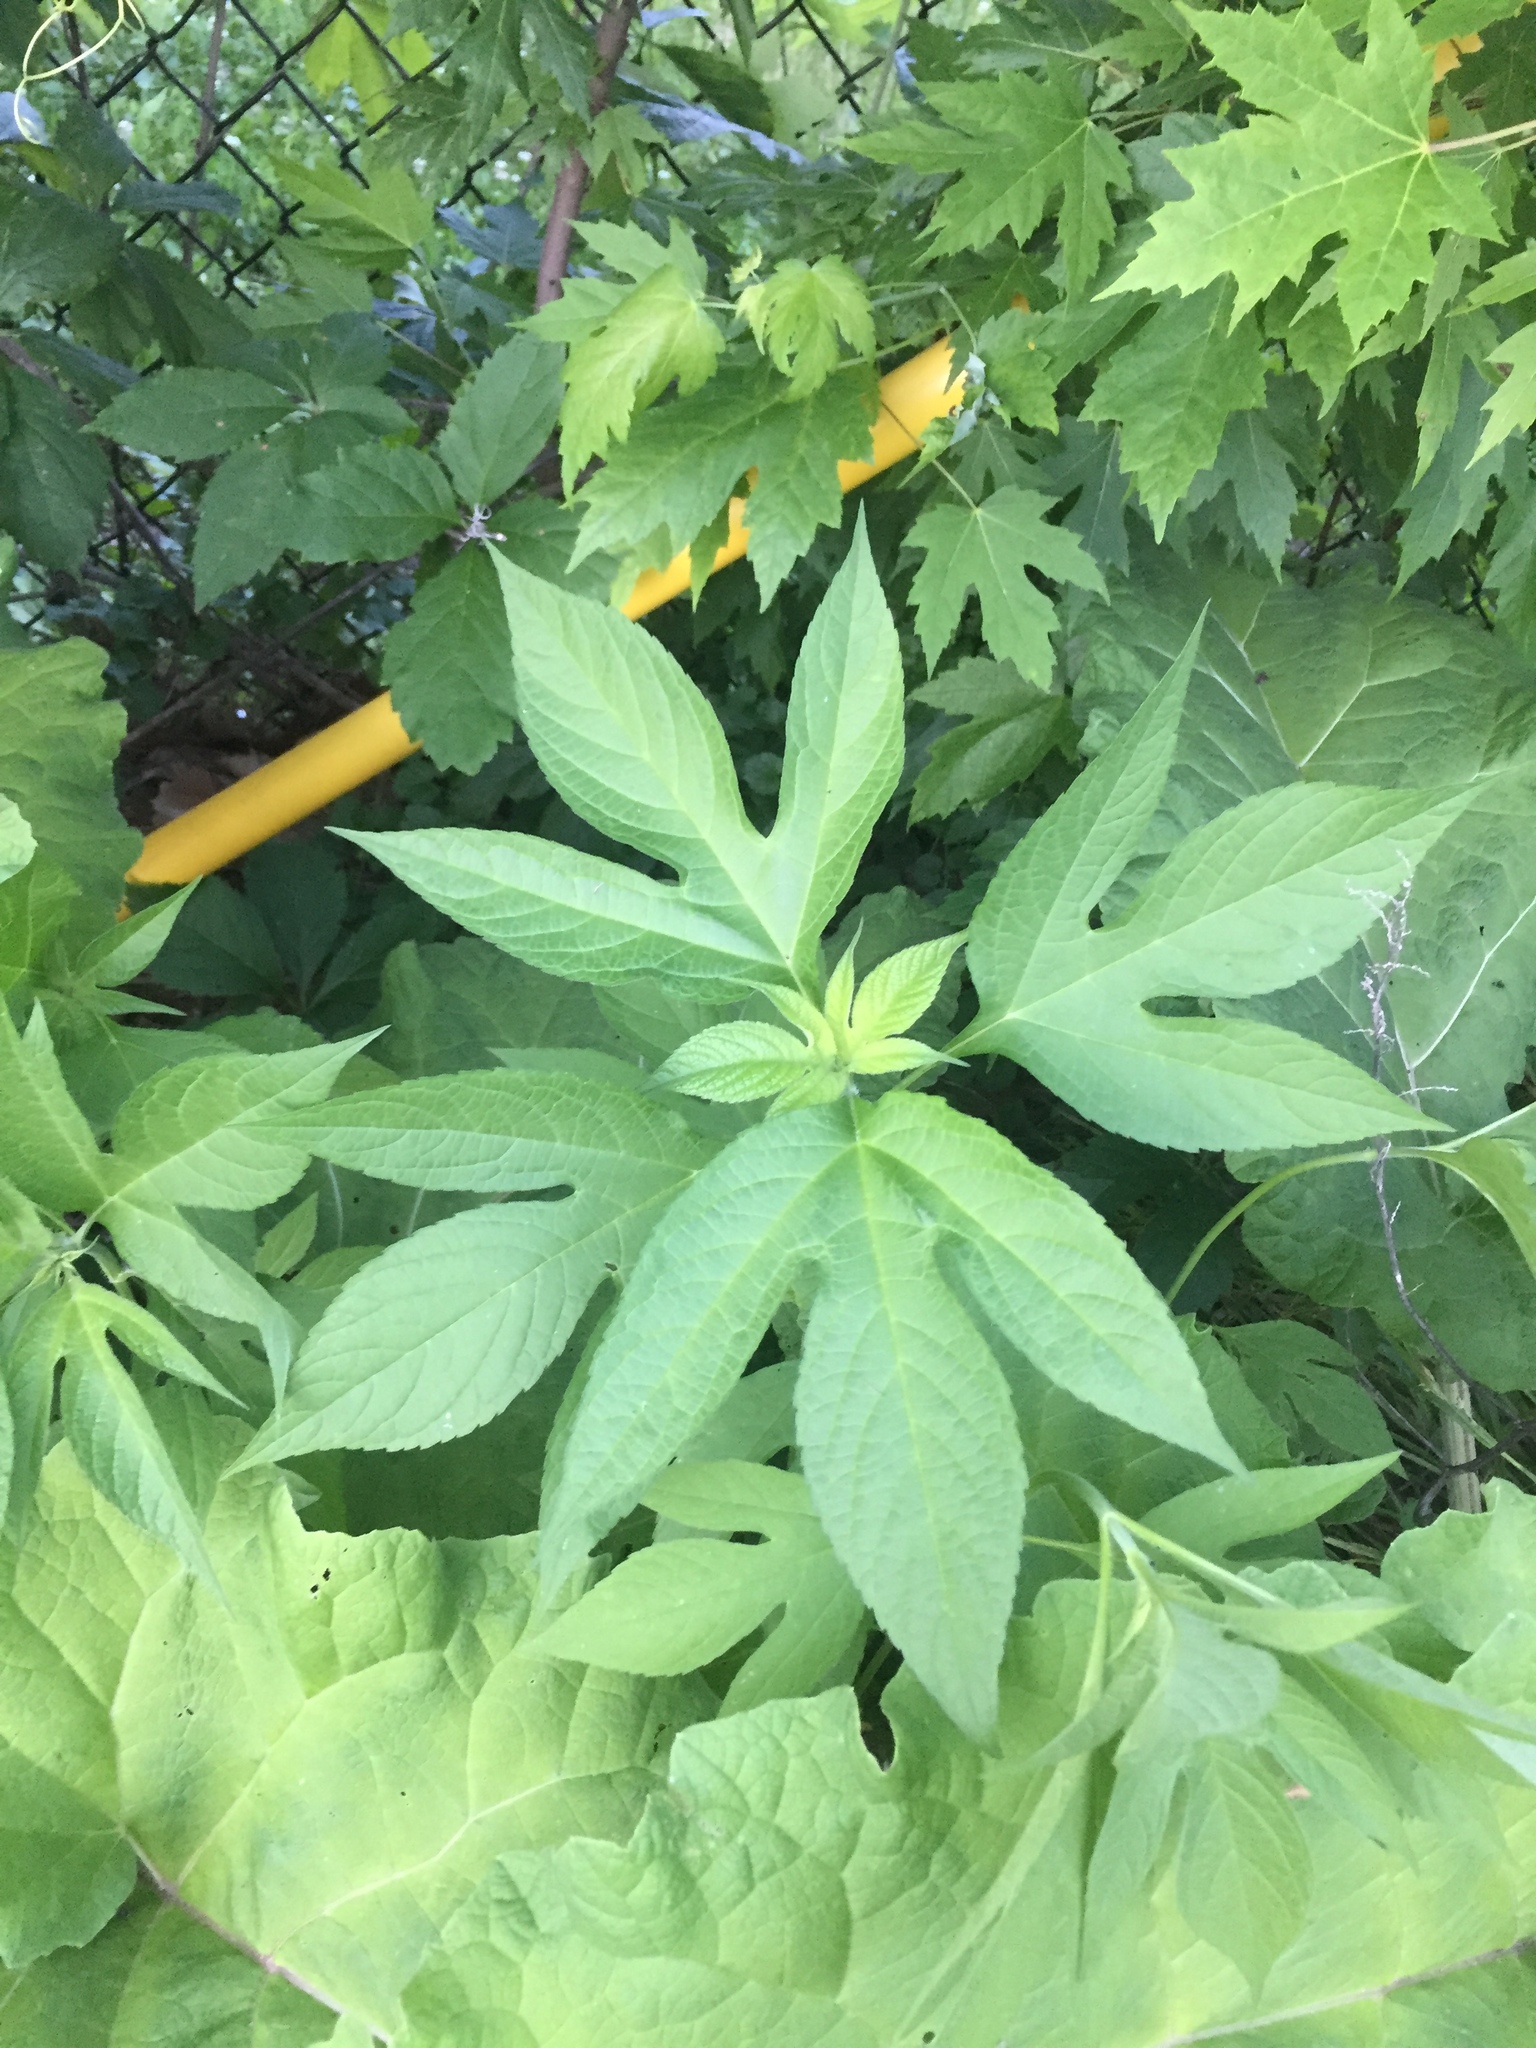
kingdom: Plantae
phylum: Tracheophyta
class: Magnoliopsida
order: Asterales
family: Asteraceae
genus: Ambrosia
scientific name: Ambrosia trifida
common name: Giant ragweed
